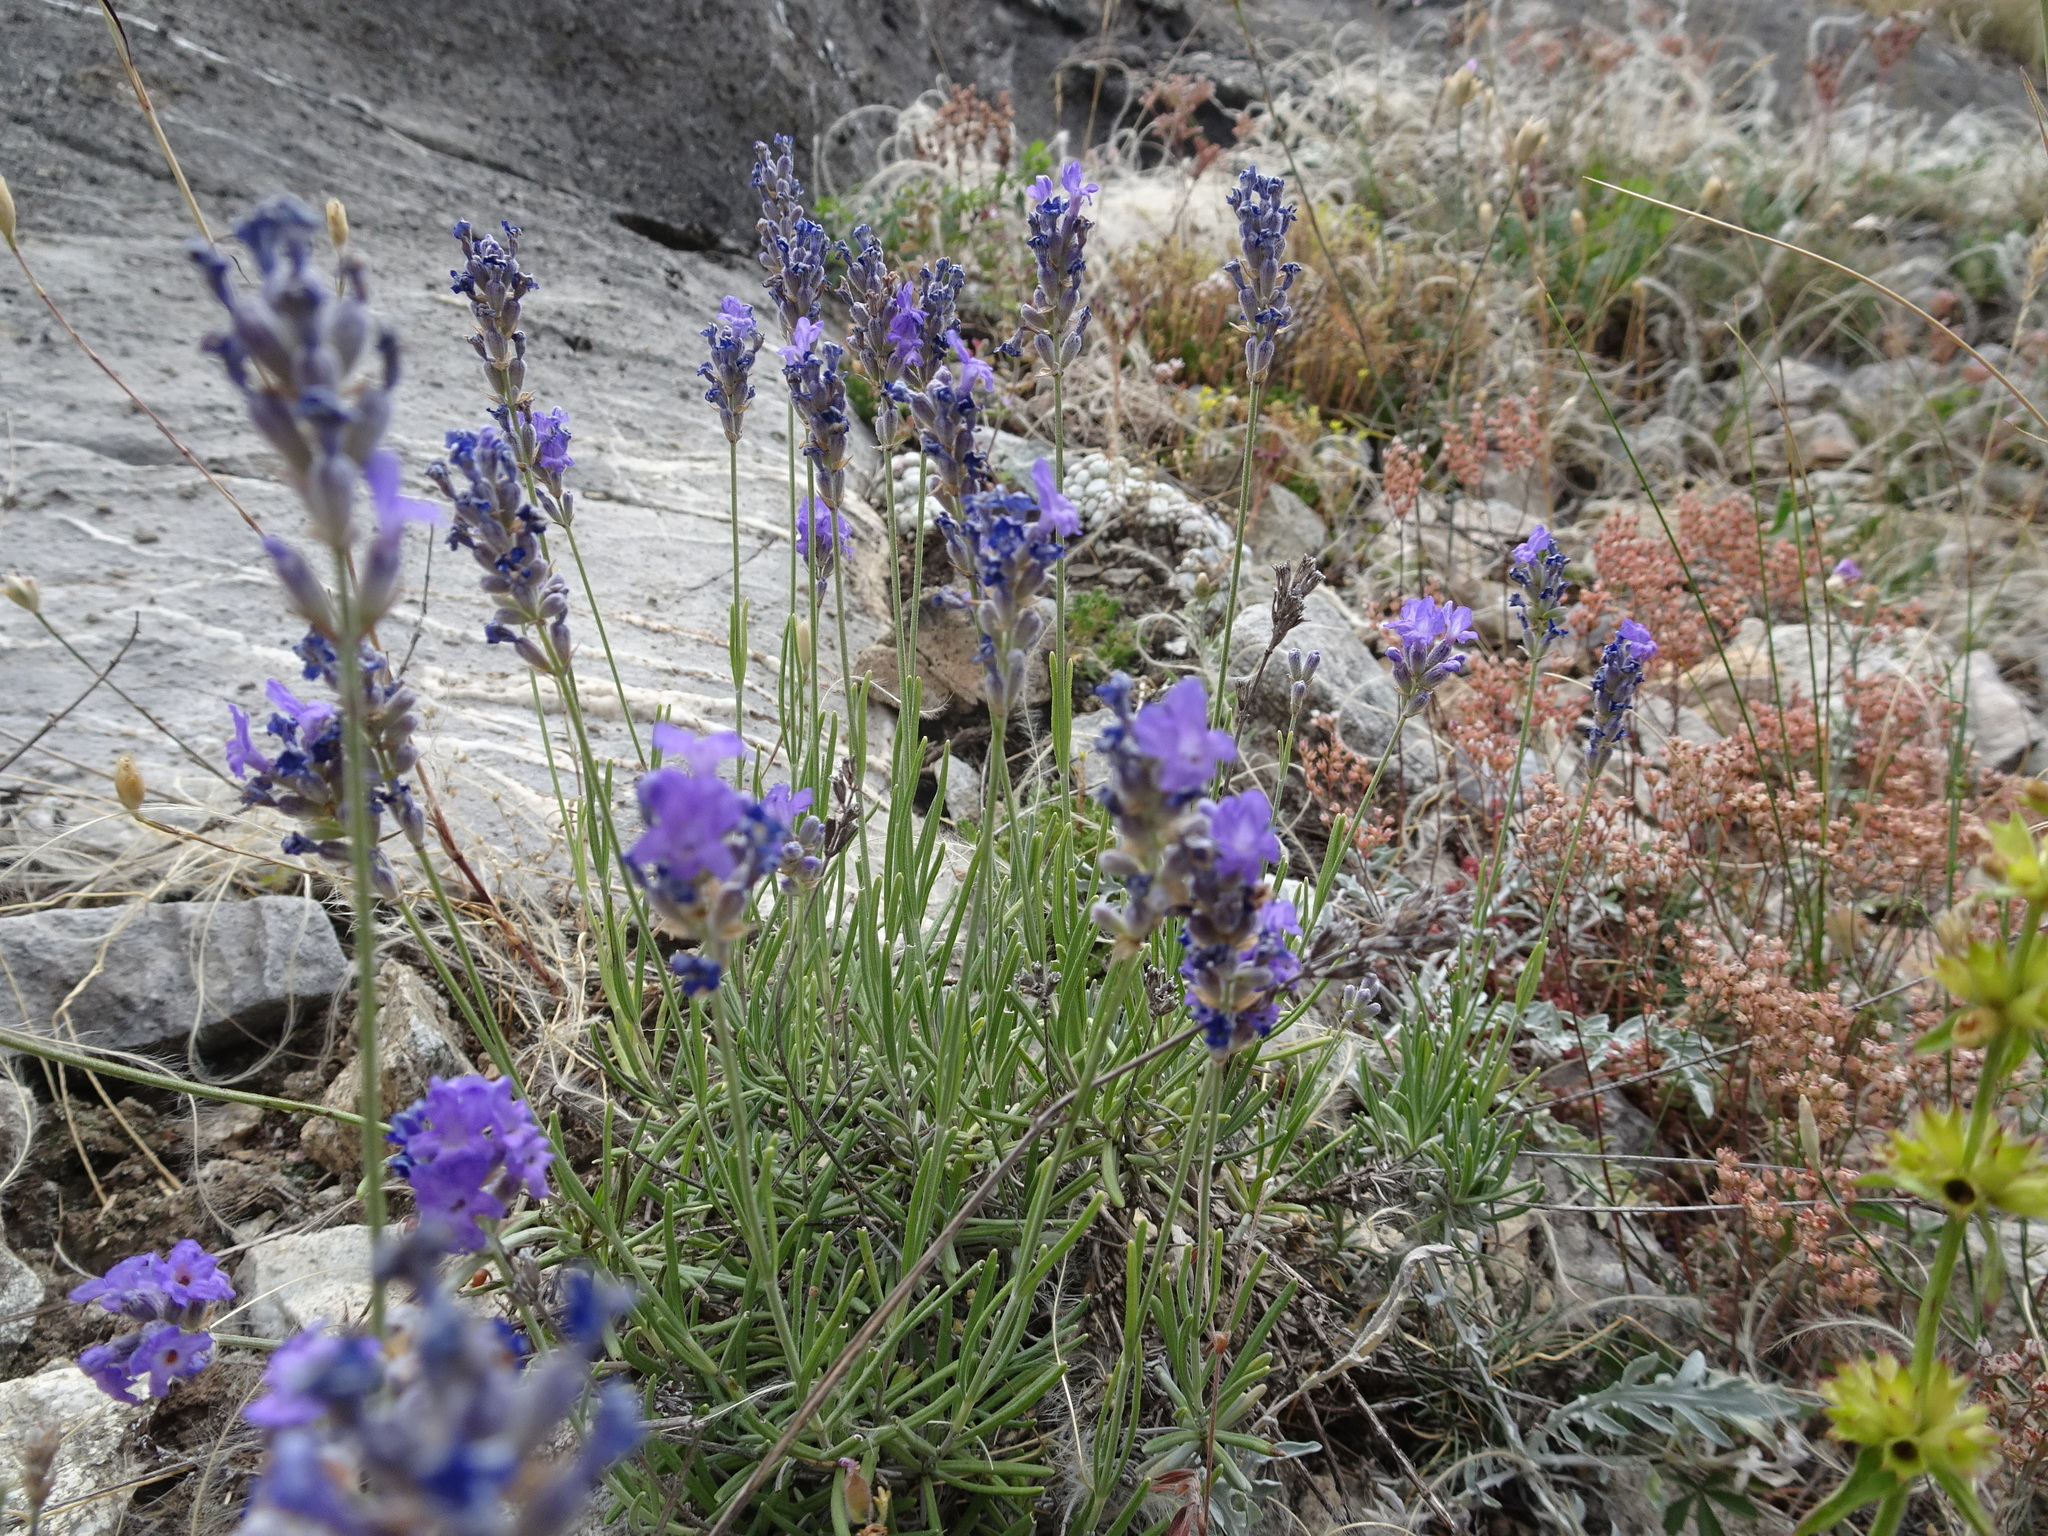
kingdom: Plantae
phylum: Tracheophyta
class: Magnoliopsida
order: Lamiales
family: Lamiaceae
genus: Lavandula
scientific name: Lavandula angustifolia
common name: Garden lavender
